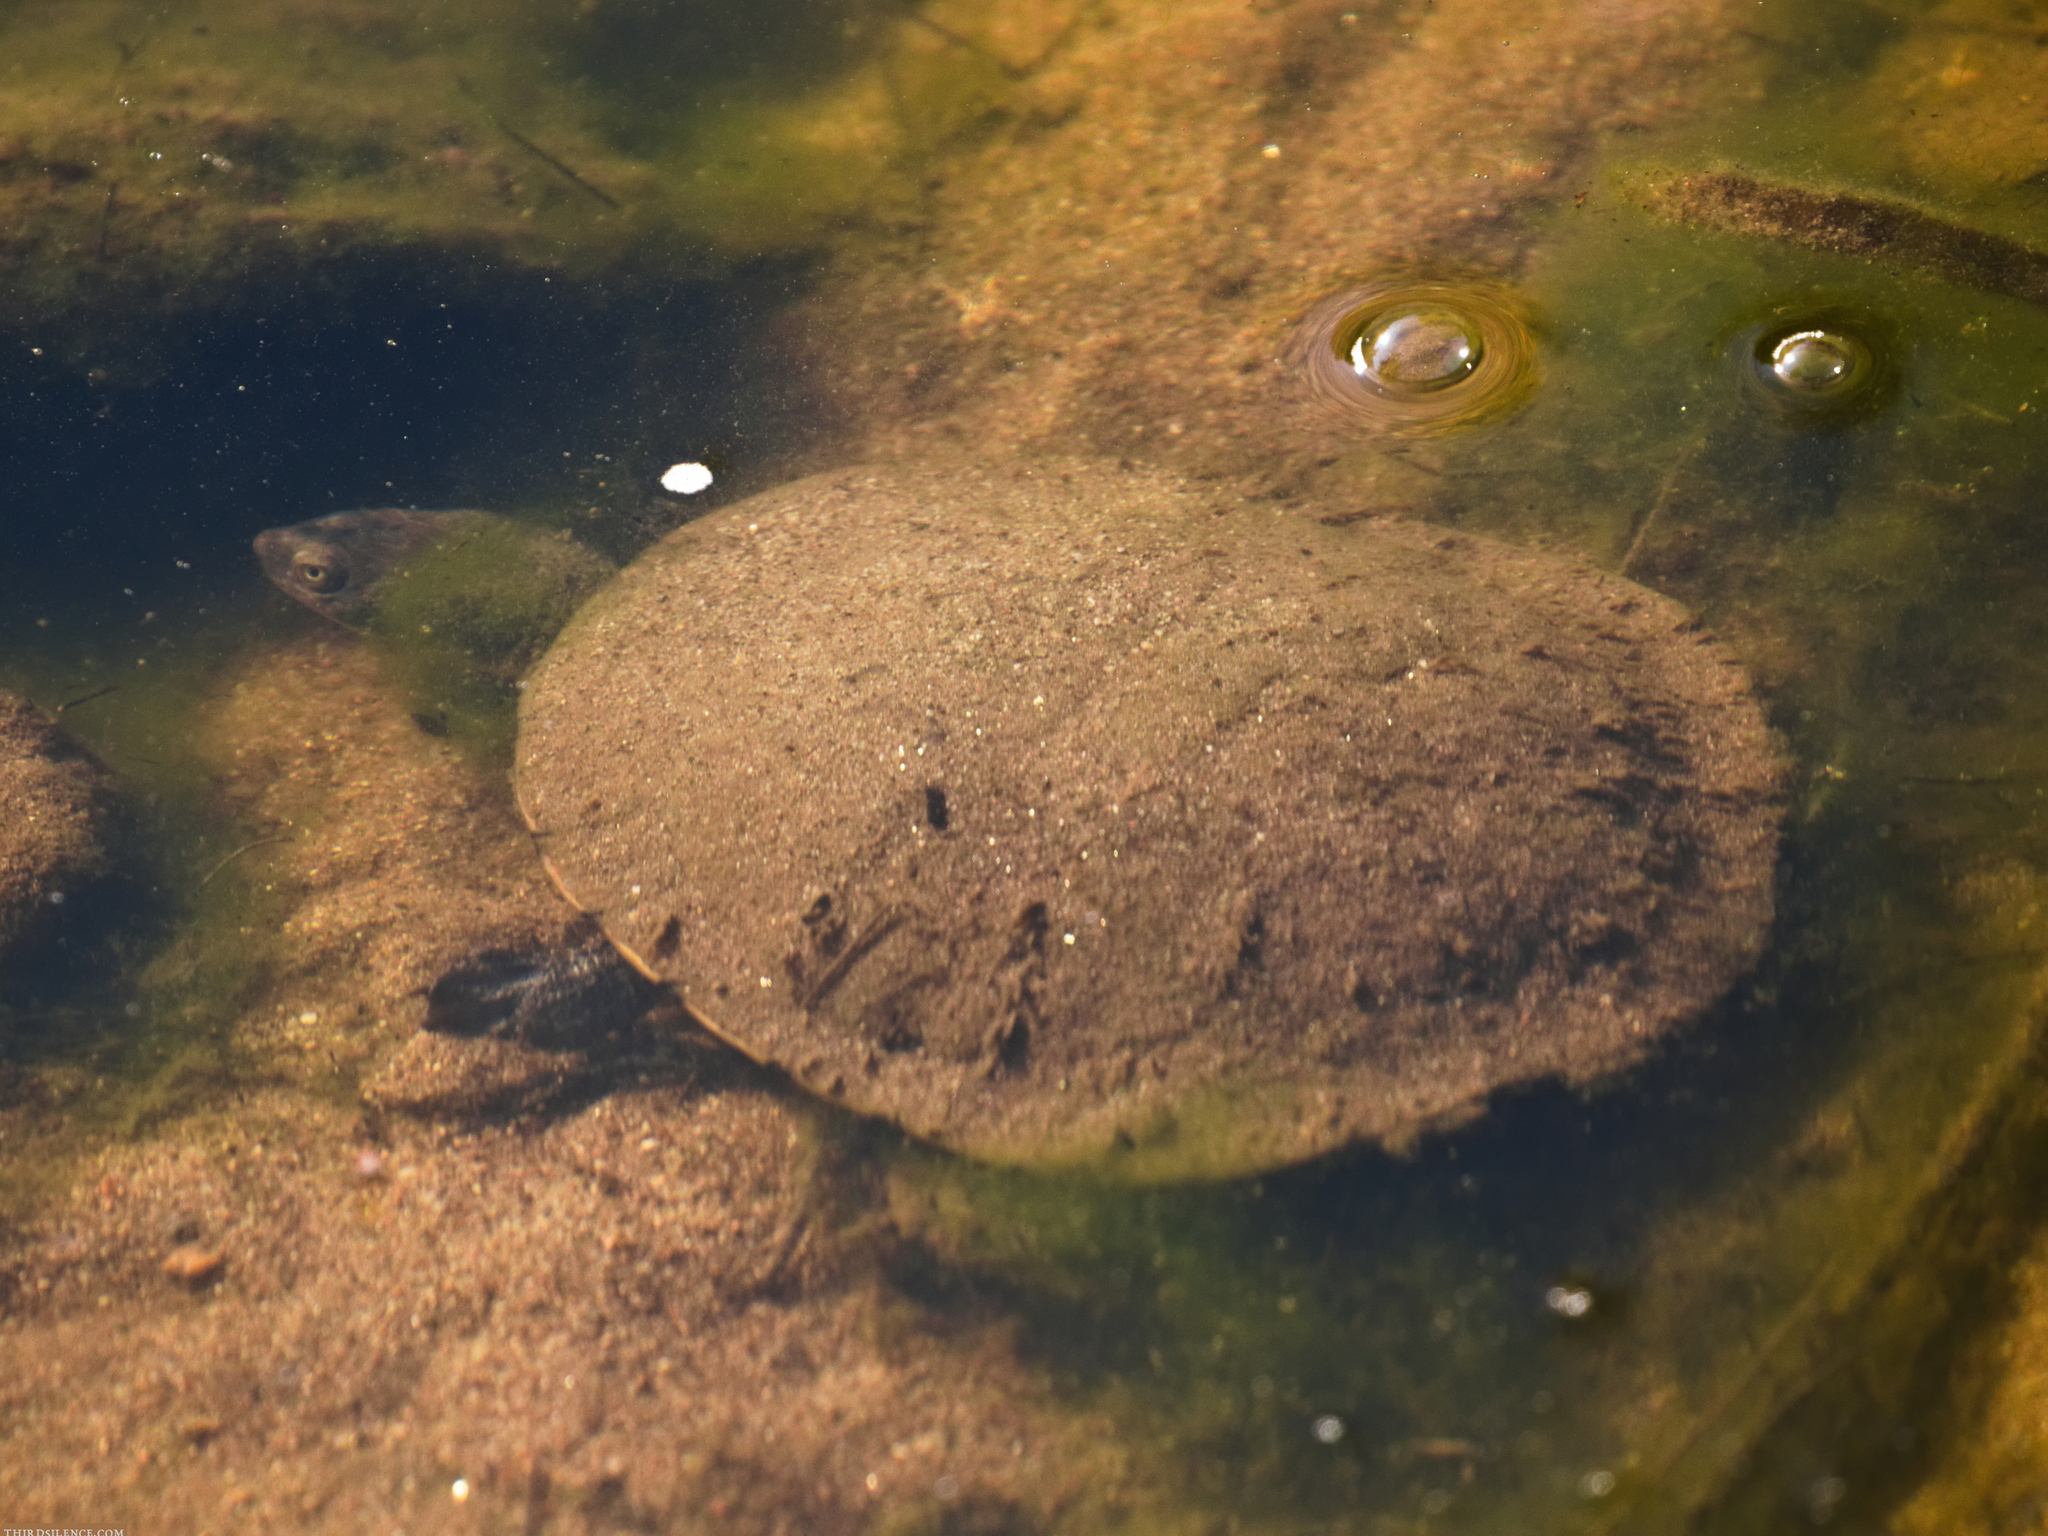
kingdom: Animalia
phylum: Chordata
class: Testudines
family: Chelidae
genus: Chelodina
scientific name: Chelodina longicollis
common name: Eastern snake-necked turtle
